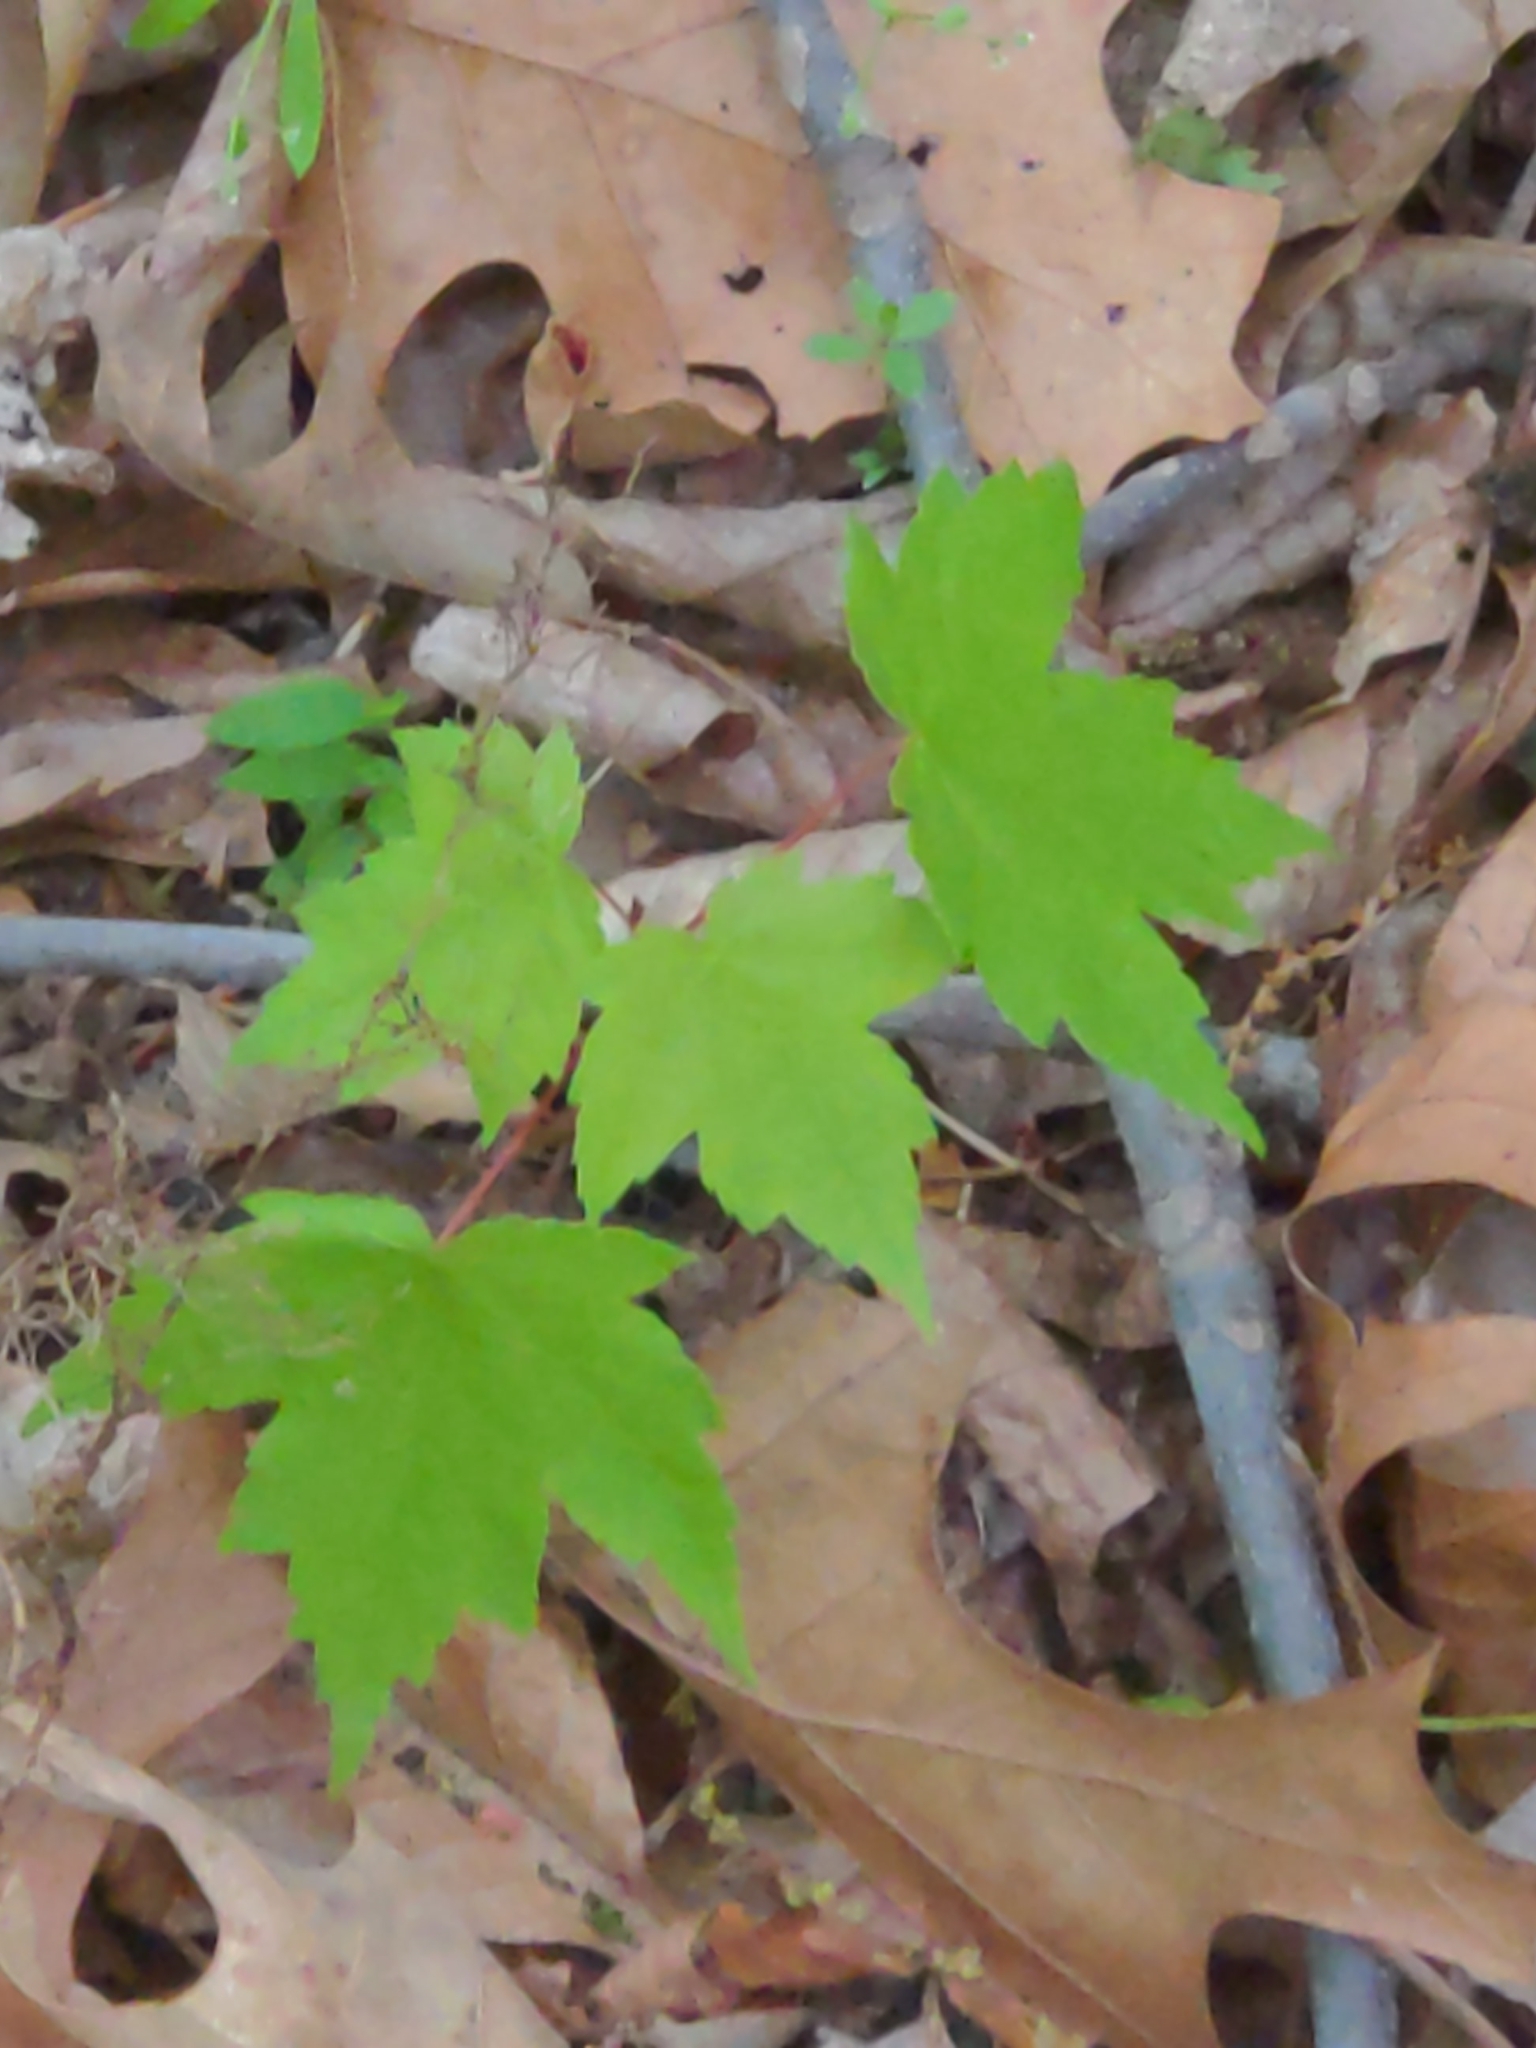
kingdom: Plantae
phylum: Tracheophyta
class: Magnoliopsida
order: Sapindales
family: Sapindaceae
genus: Acer
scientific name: Acer rubrum
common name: Red maple
